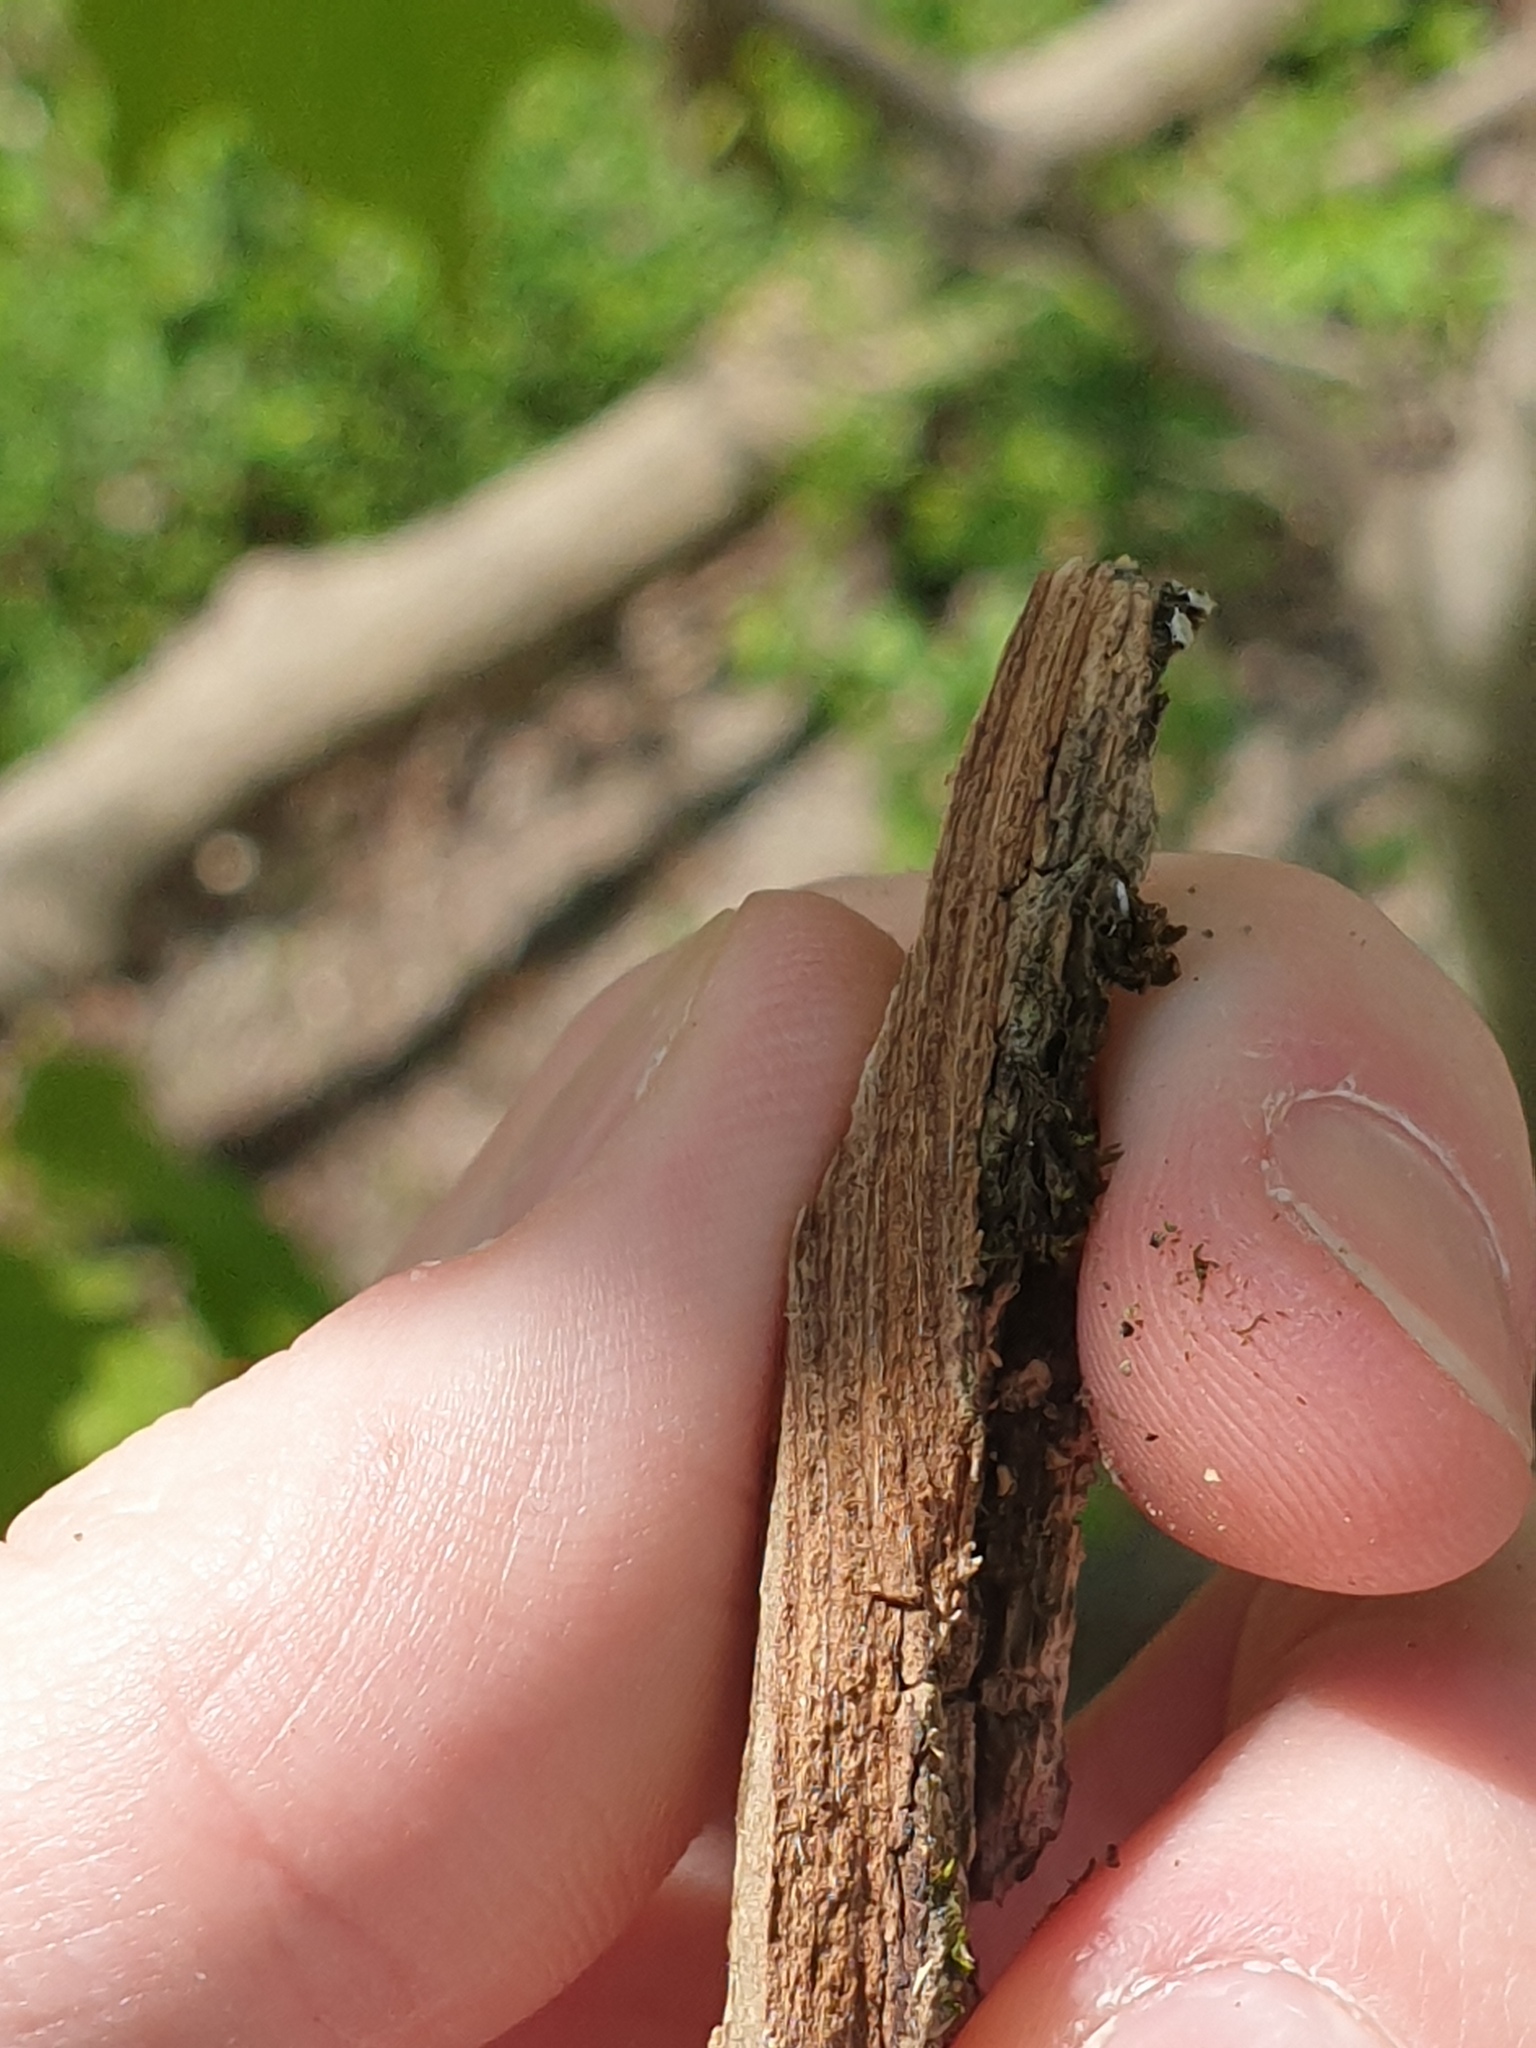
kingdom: Plantae
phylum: Tracheophyta
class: Magnoliopsida
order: Rosales
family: Ulmaceae
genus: Ulmus
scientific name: Ulmus rubra
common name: Slippery elm
